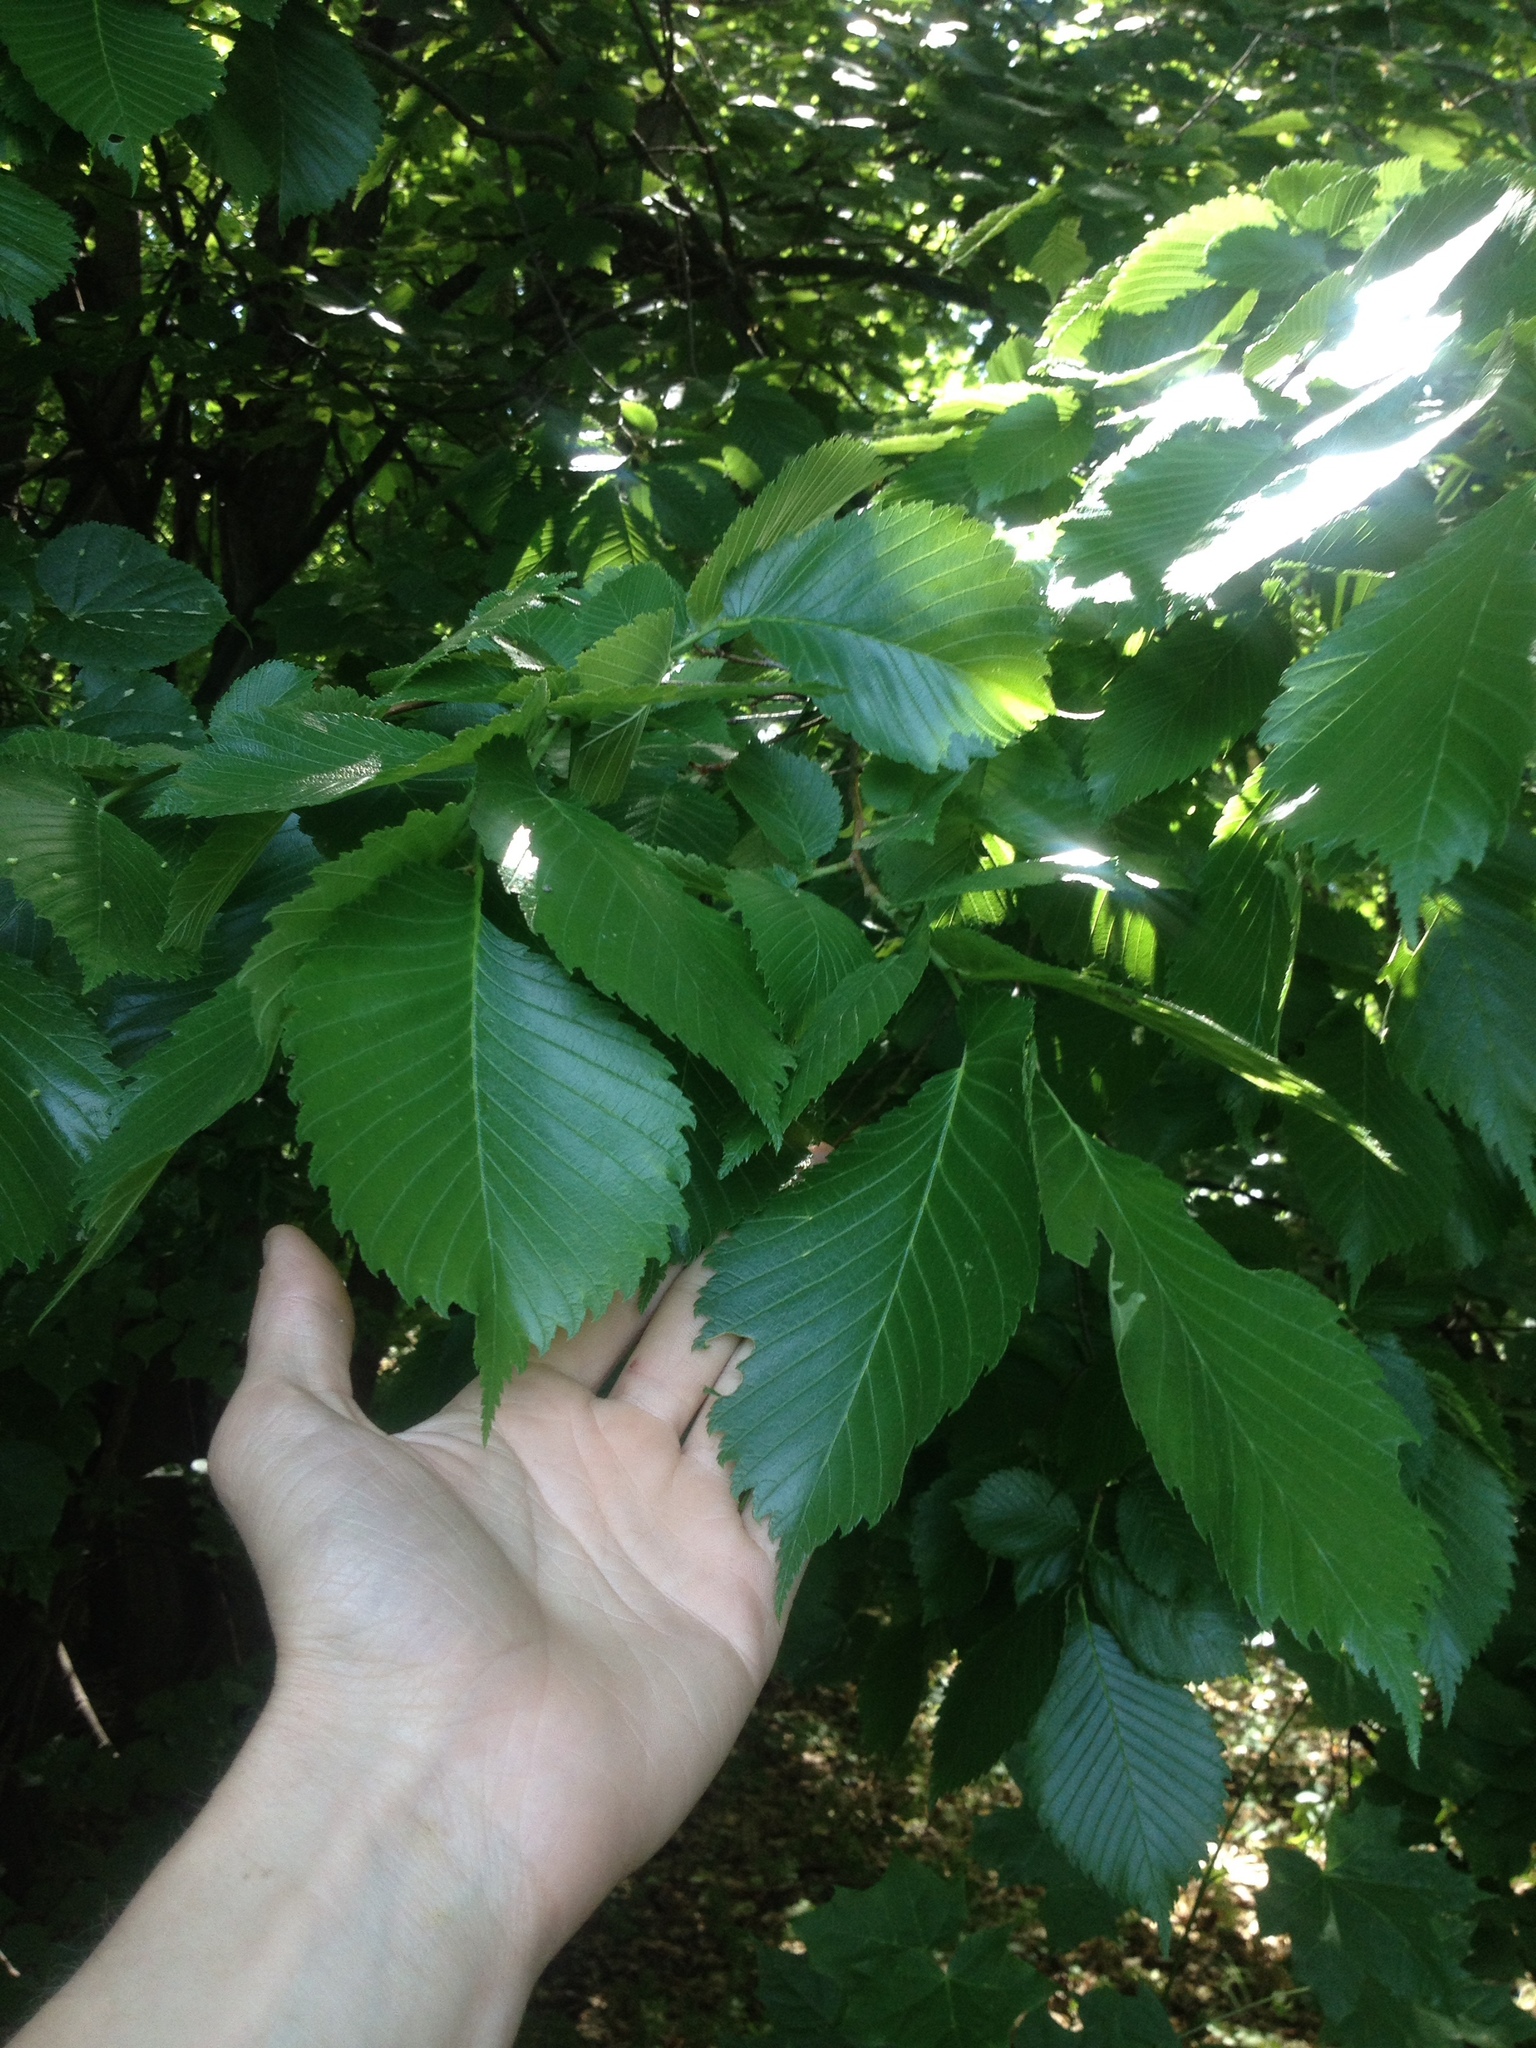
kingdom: Plantae
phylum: Tracheophyta
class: Magnoliopsida
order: Rosales
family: Ulmaceae
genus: Ulmus
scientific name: Ulmus laevis
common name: European white-elm
